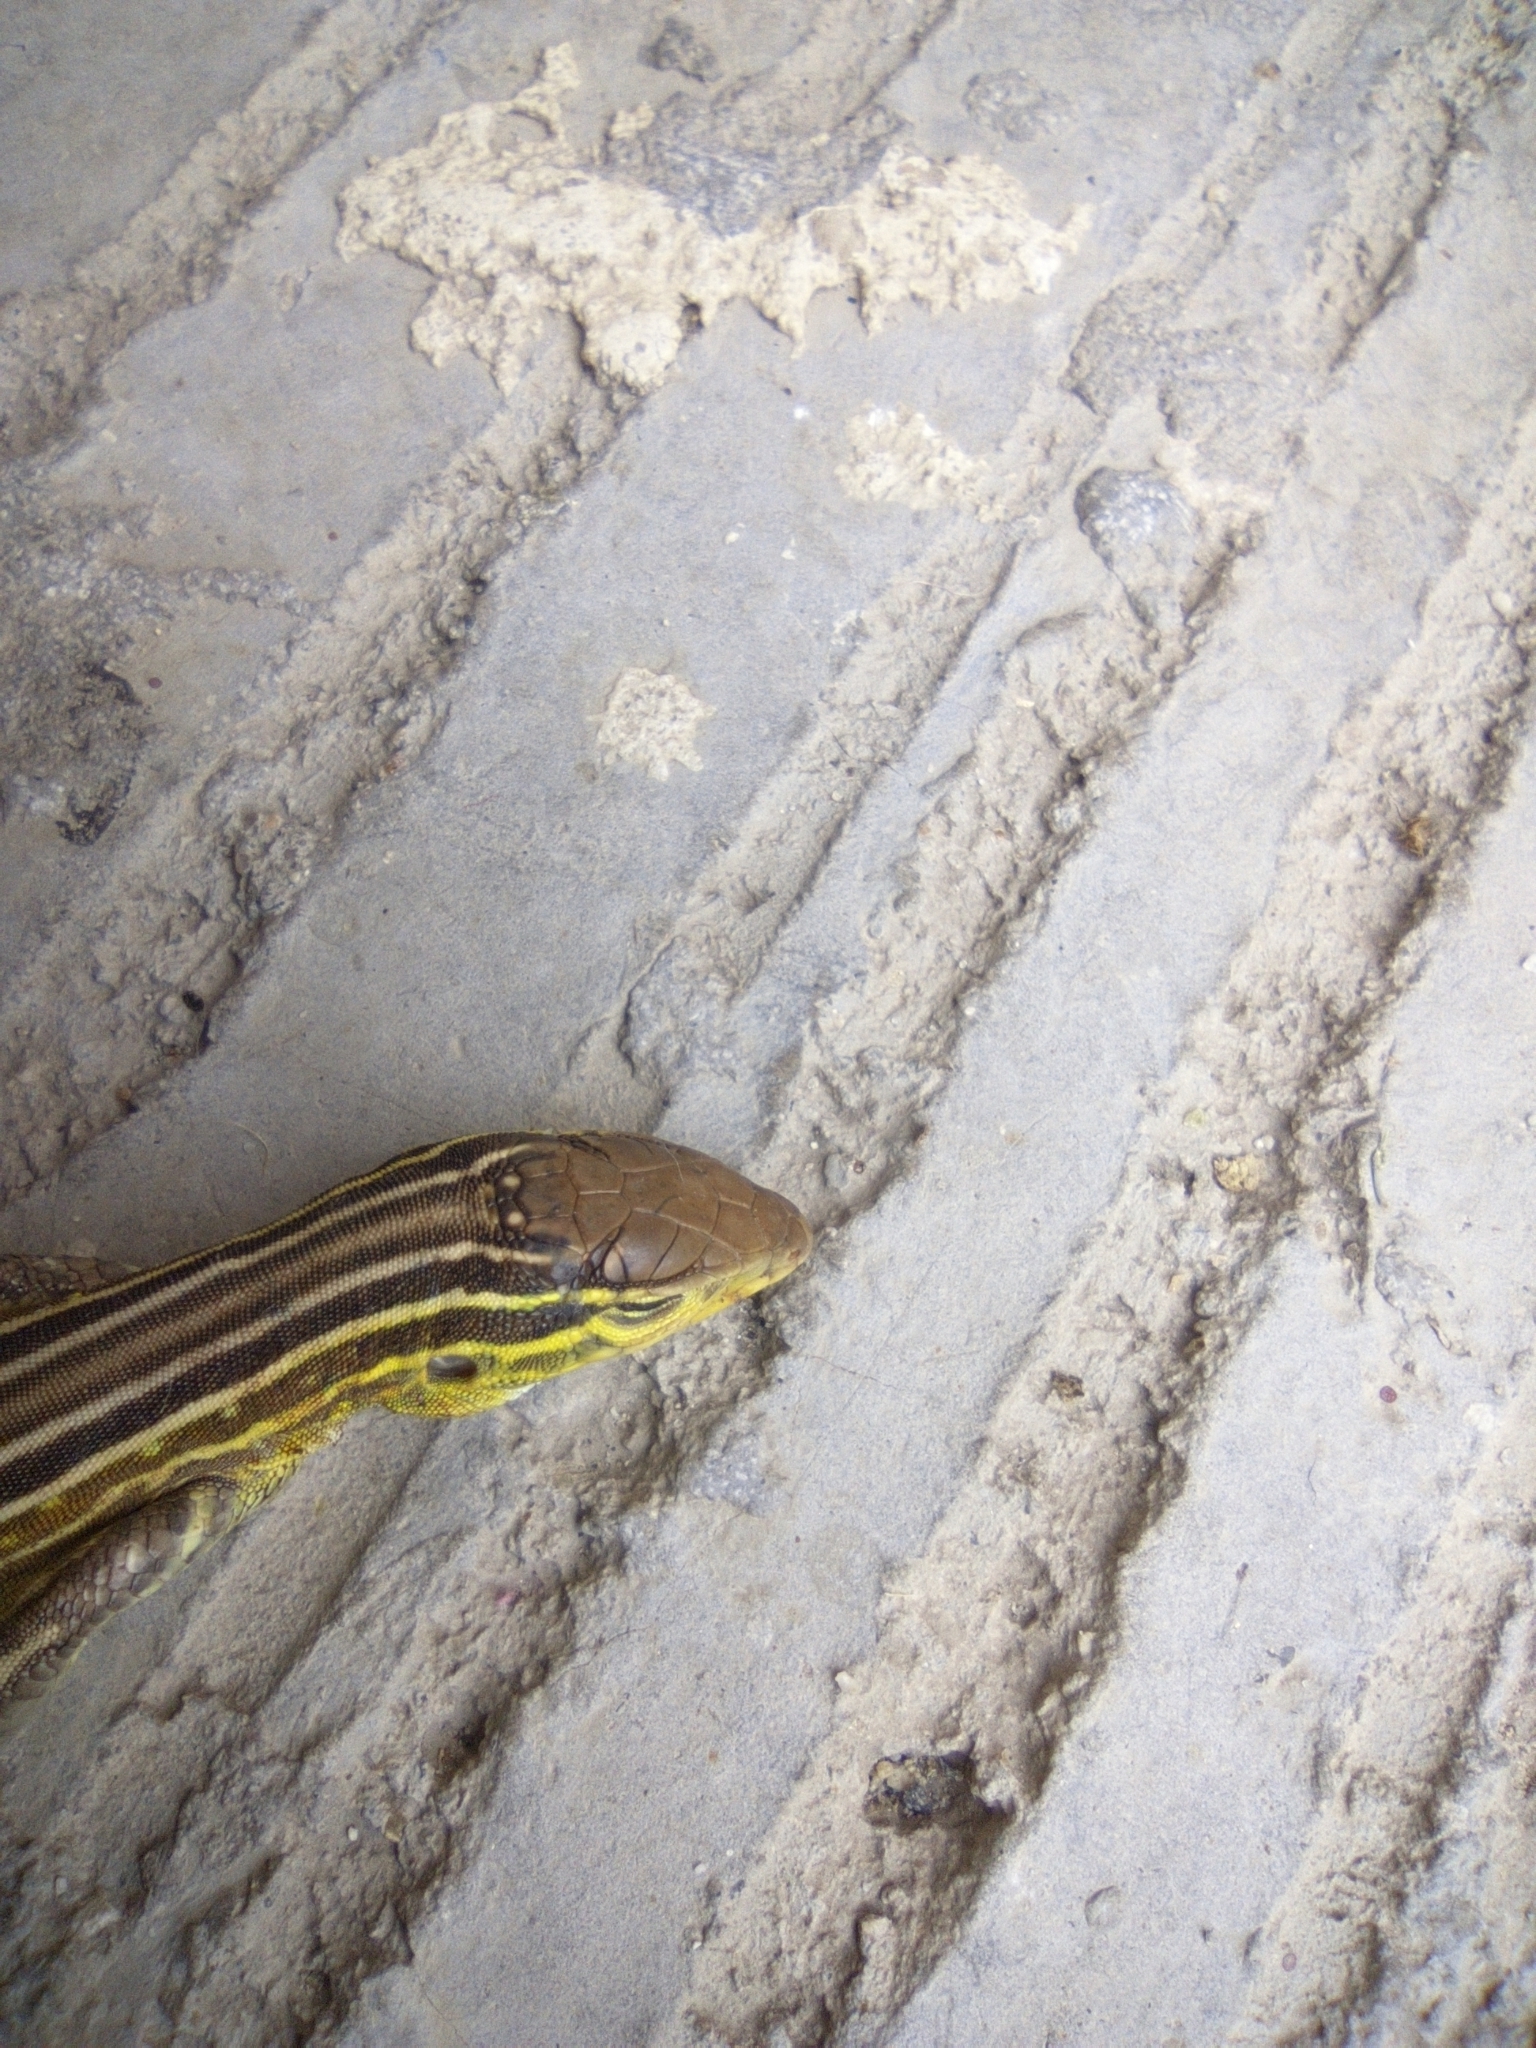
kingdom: Animalia
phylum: Chordata
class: Squamata
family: Teiidae
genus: Cnemidophorus
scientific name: Cnemidophorus gaigei
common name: Gaige’s rainbow lizard
